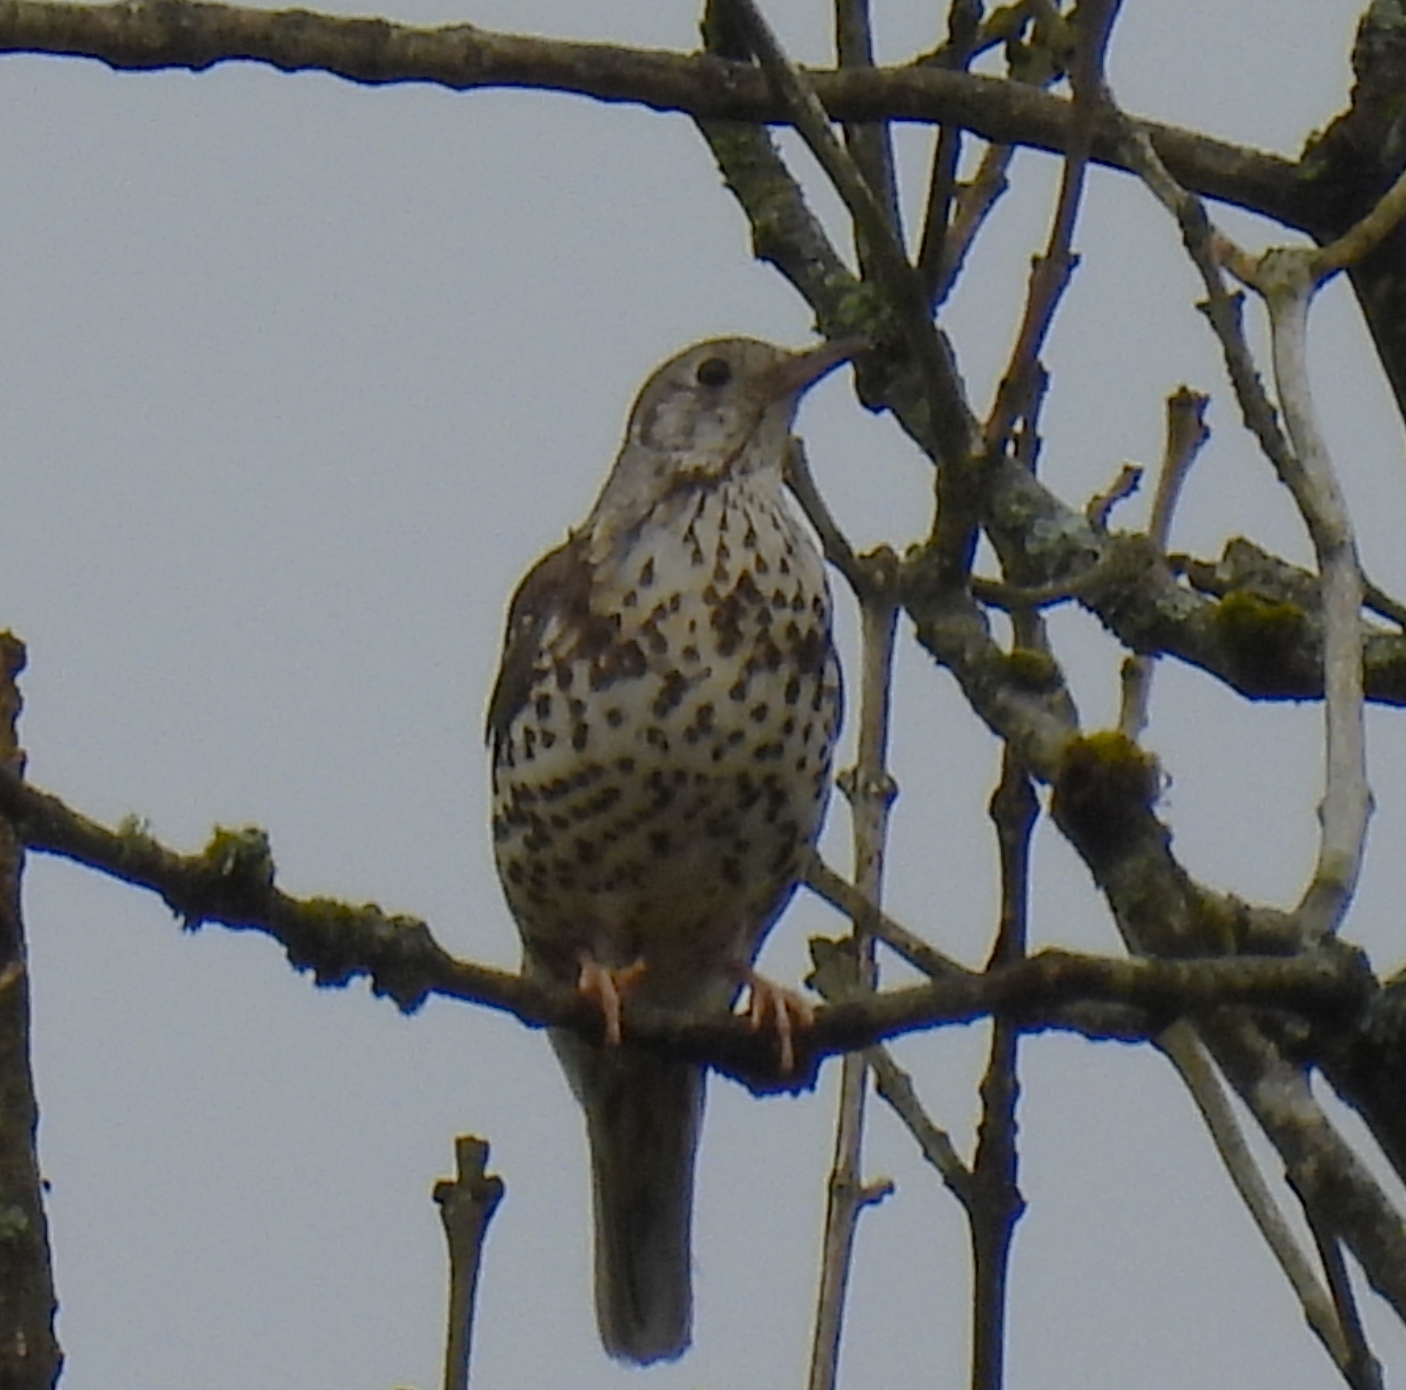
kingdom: Animalia
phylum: Chordata
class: Aves
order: Passeriformes
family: Turdidae
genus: Turdus
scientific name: Turdus viscivorus
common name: Mistle thrush
